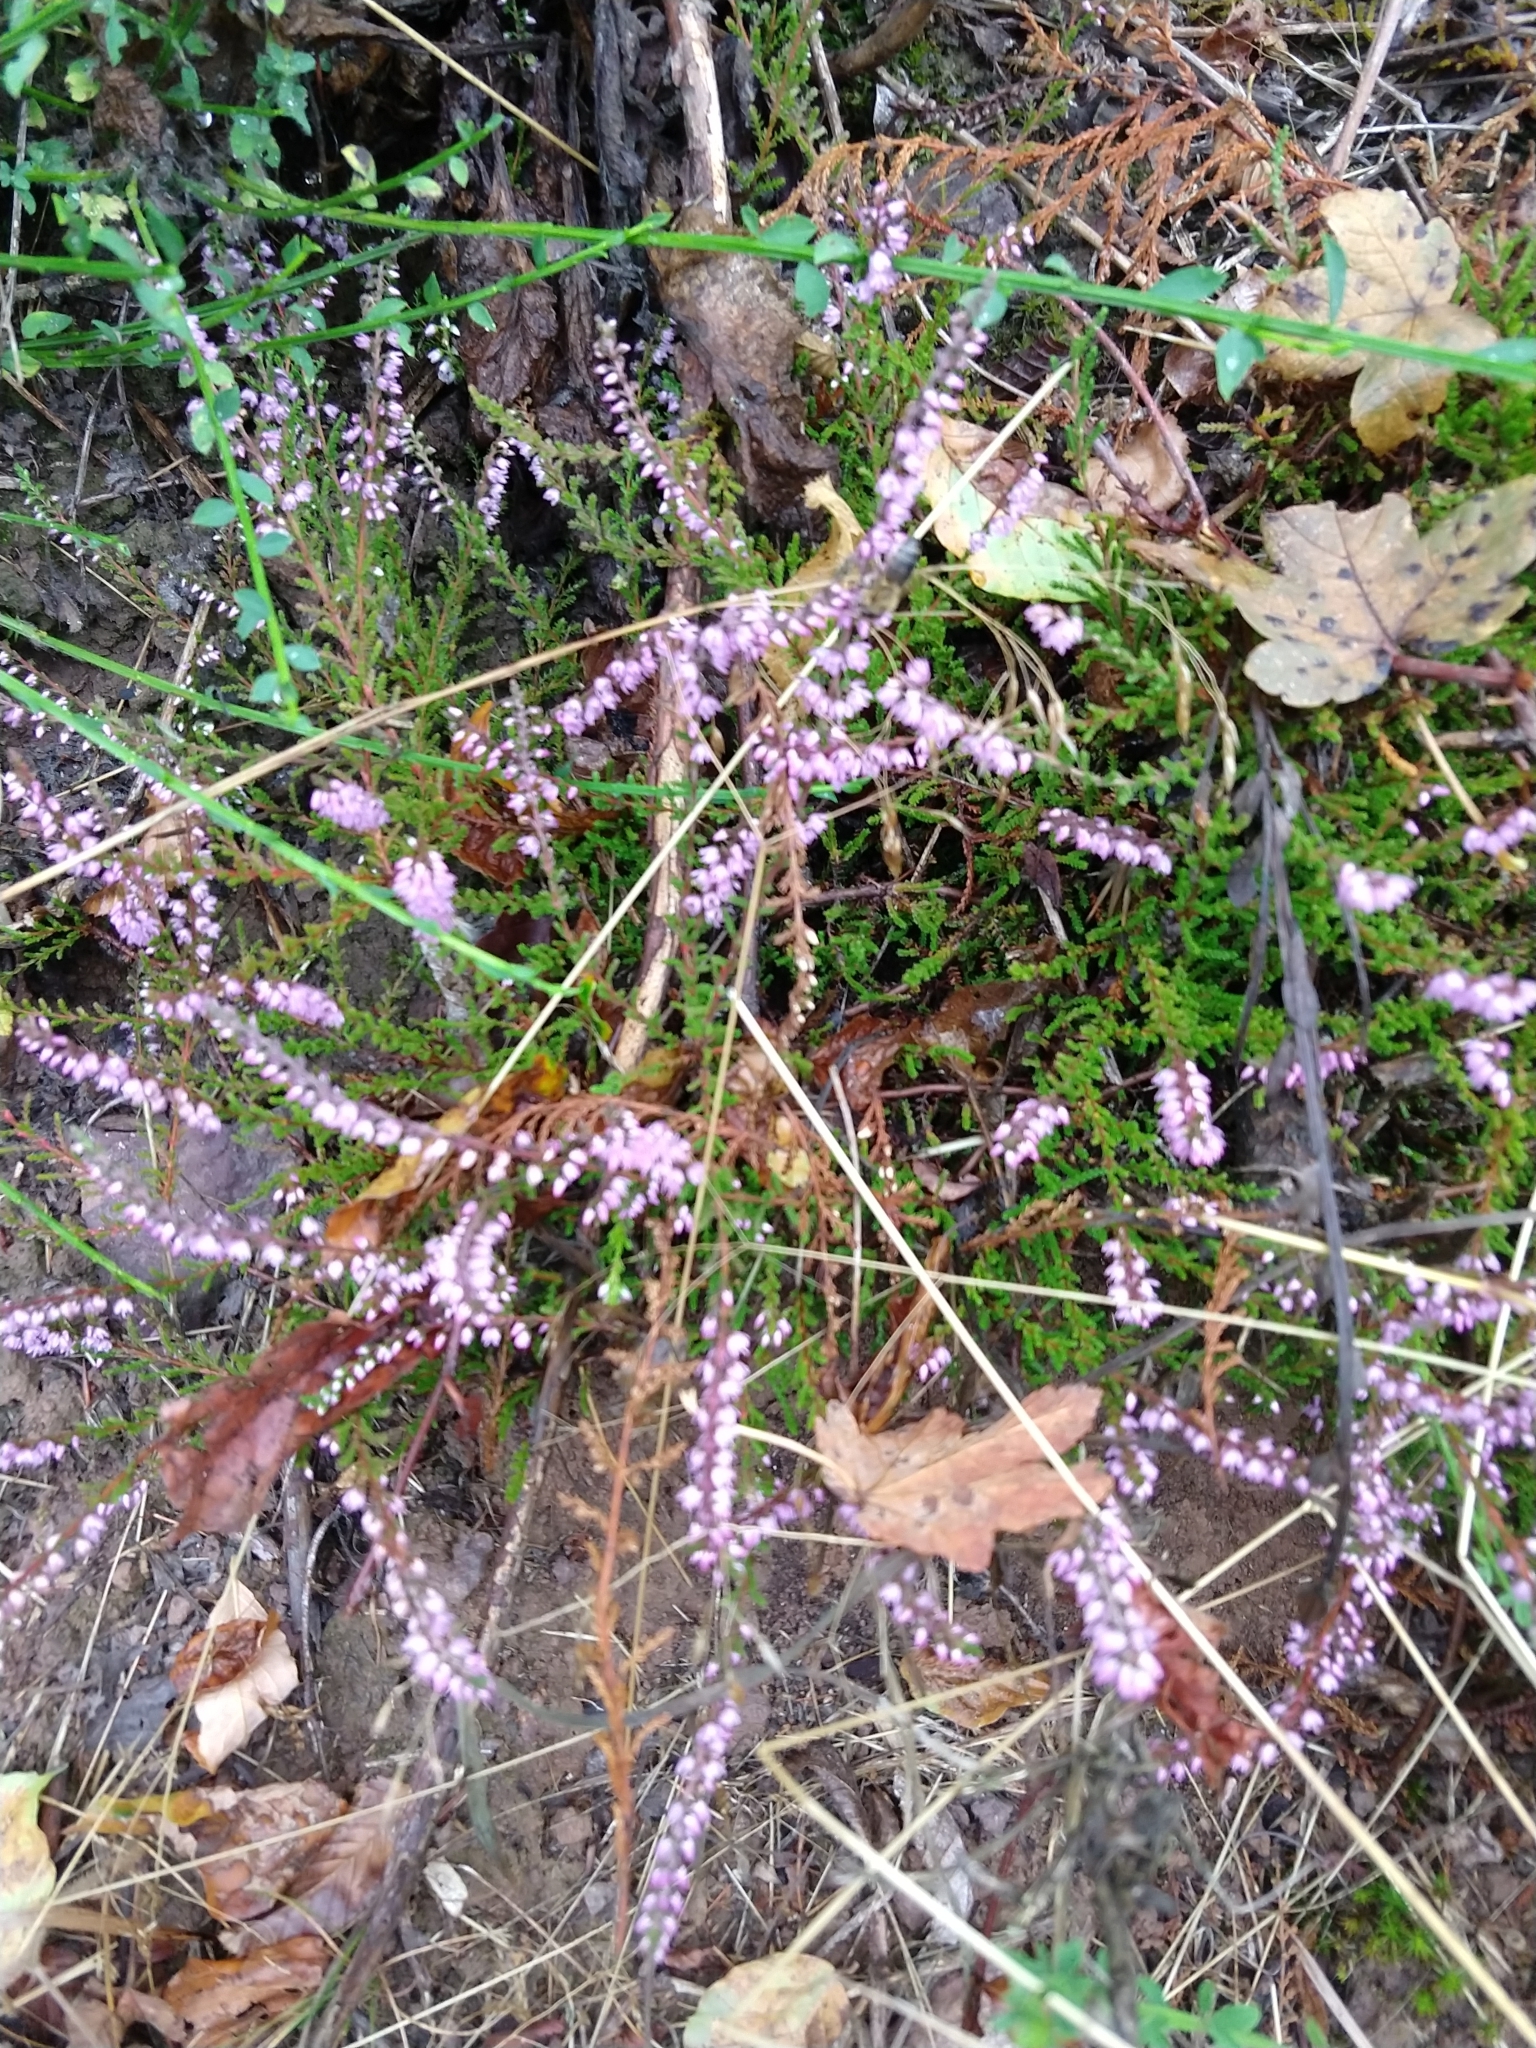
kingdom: Plantae
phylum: Tracheophyta
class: Magnoliopsida
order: Ericales
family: Ericaceae
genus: Calluna
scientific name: Calluna vulgaris
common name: Heather
